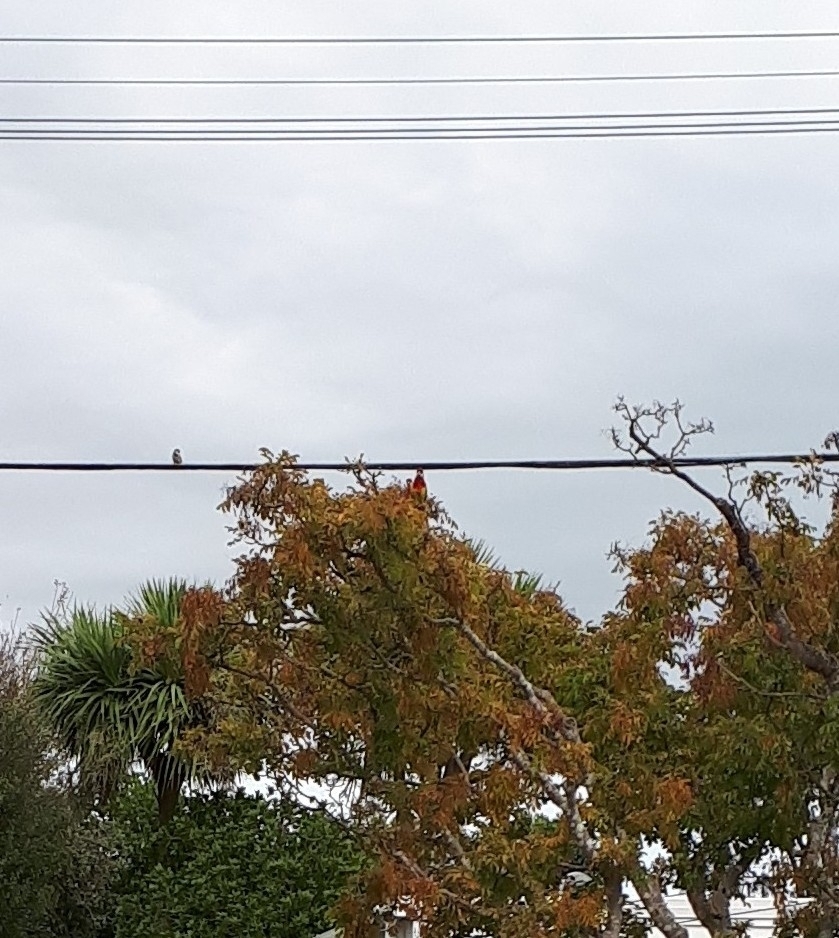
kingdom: Animalia
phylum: Chordata
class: Aves
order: Psittaciformes
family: Psittacidae
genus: Platycercus
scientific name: Platycercus eximius
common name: Eastern rosella
